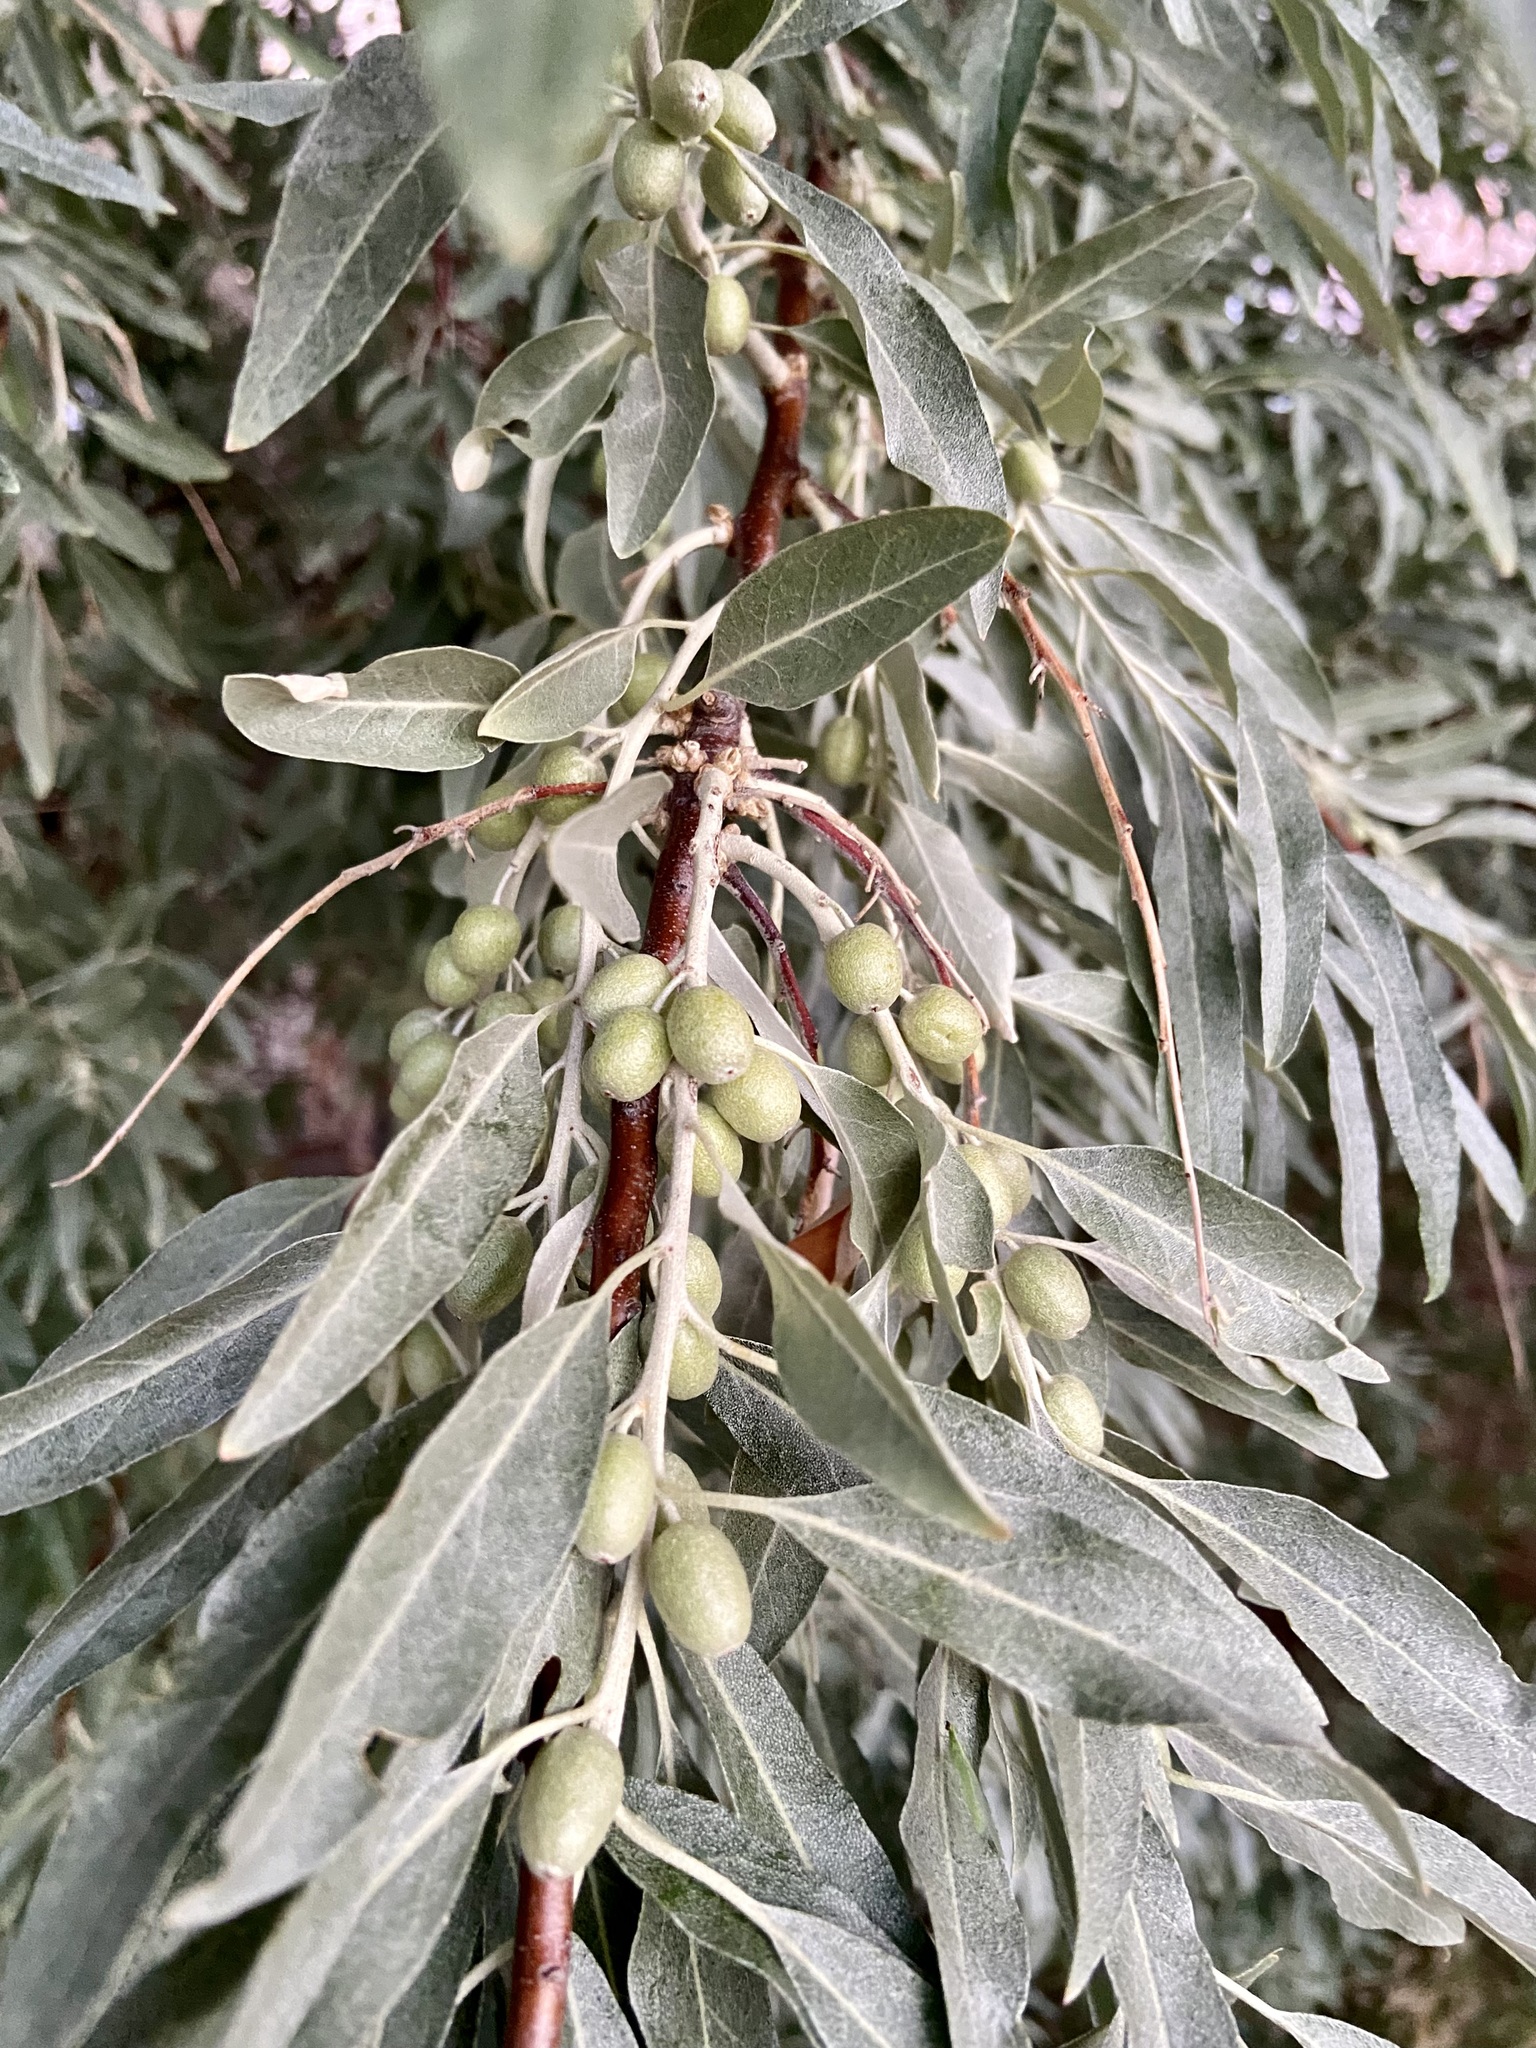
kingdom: Plantae
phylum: Tracheophyta
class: Magnoliopsida
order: Rosales
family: Elaeagnaceae
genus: Elaeagnus
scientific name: Elaeagnus angustifolia
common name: Russian olive
